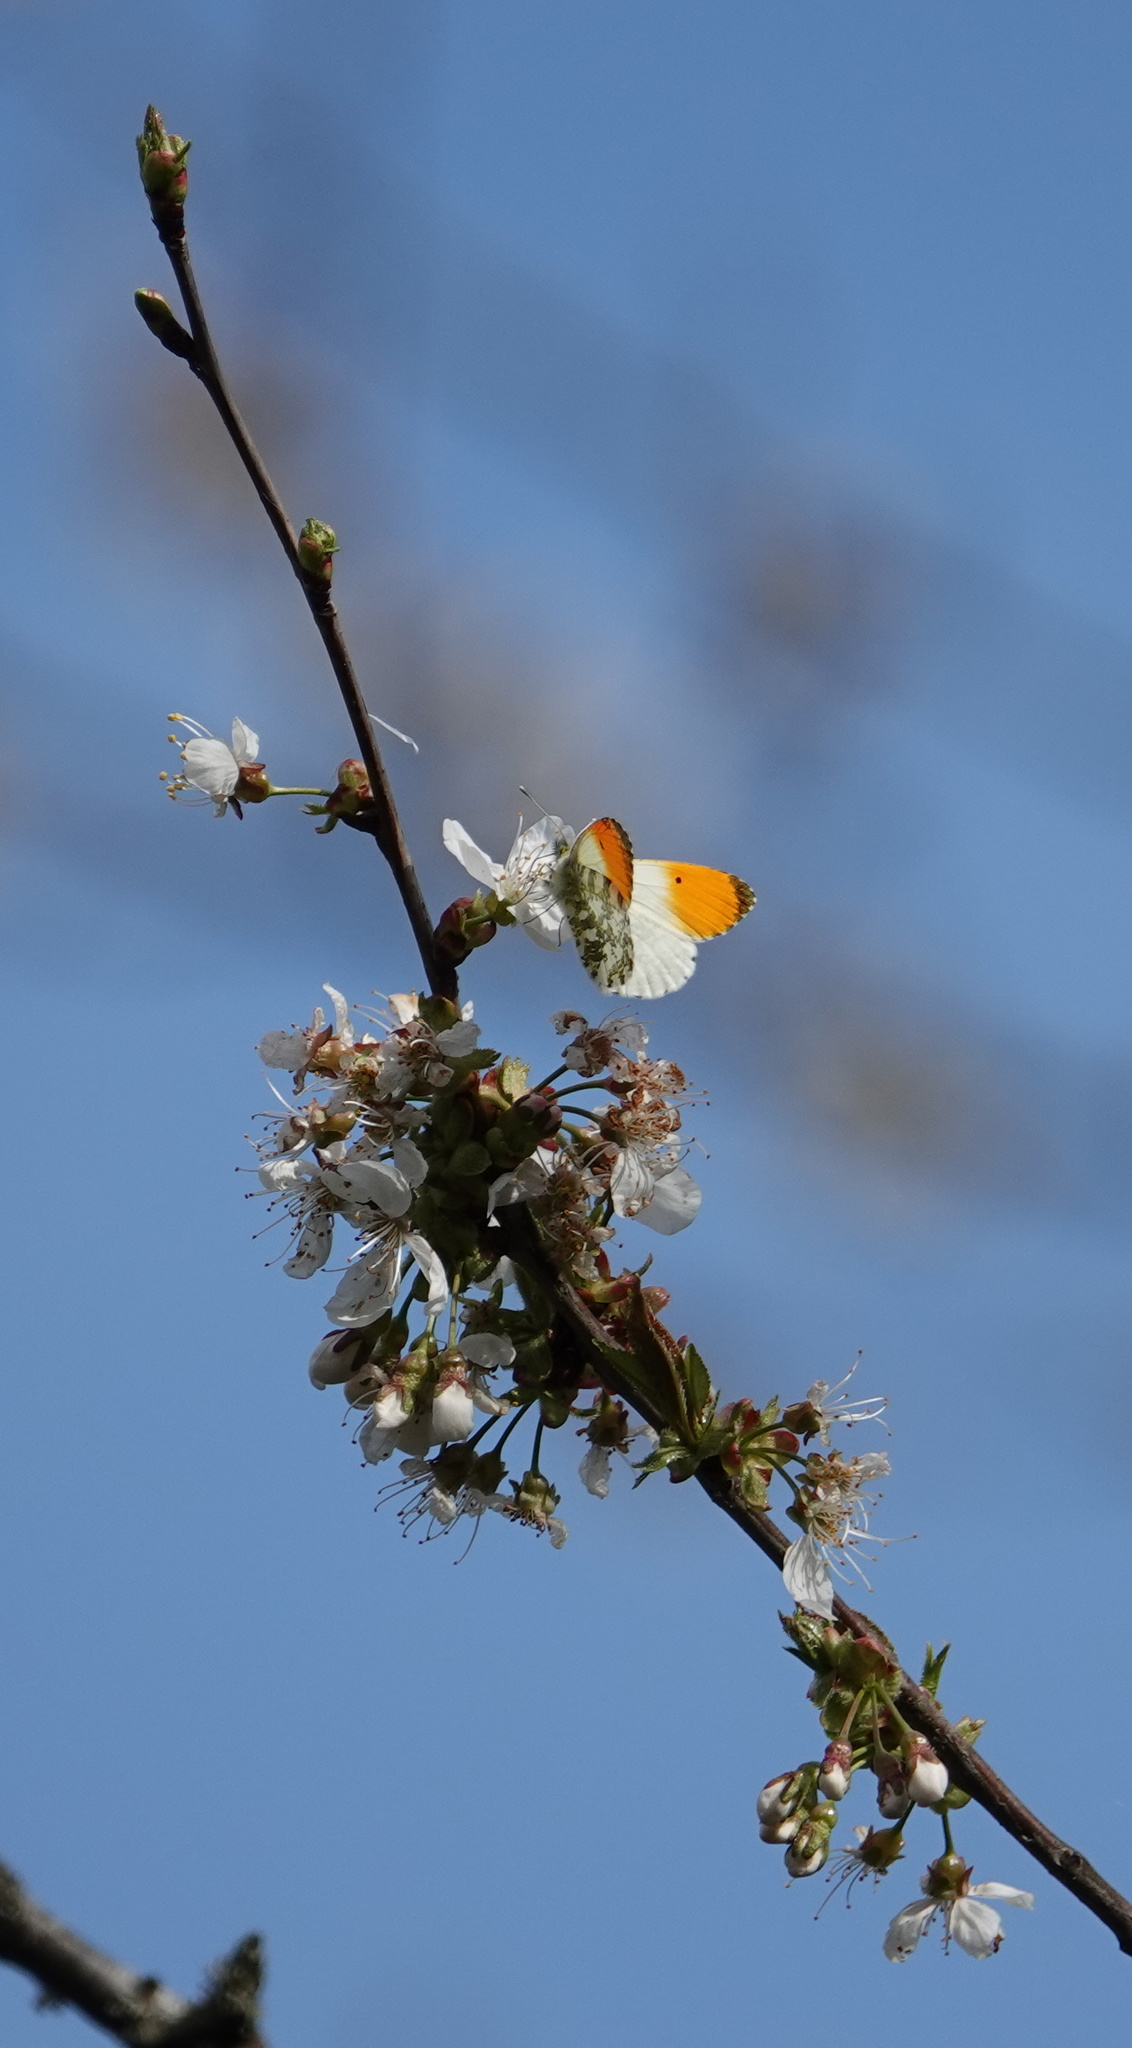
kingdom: Animalia
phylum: Arthropoda
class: Insecta
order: Lepidoptera
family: Pieridae
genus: Anthocharis
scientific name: Anthocharis cardamines
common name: Orange-tip
